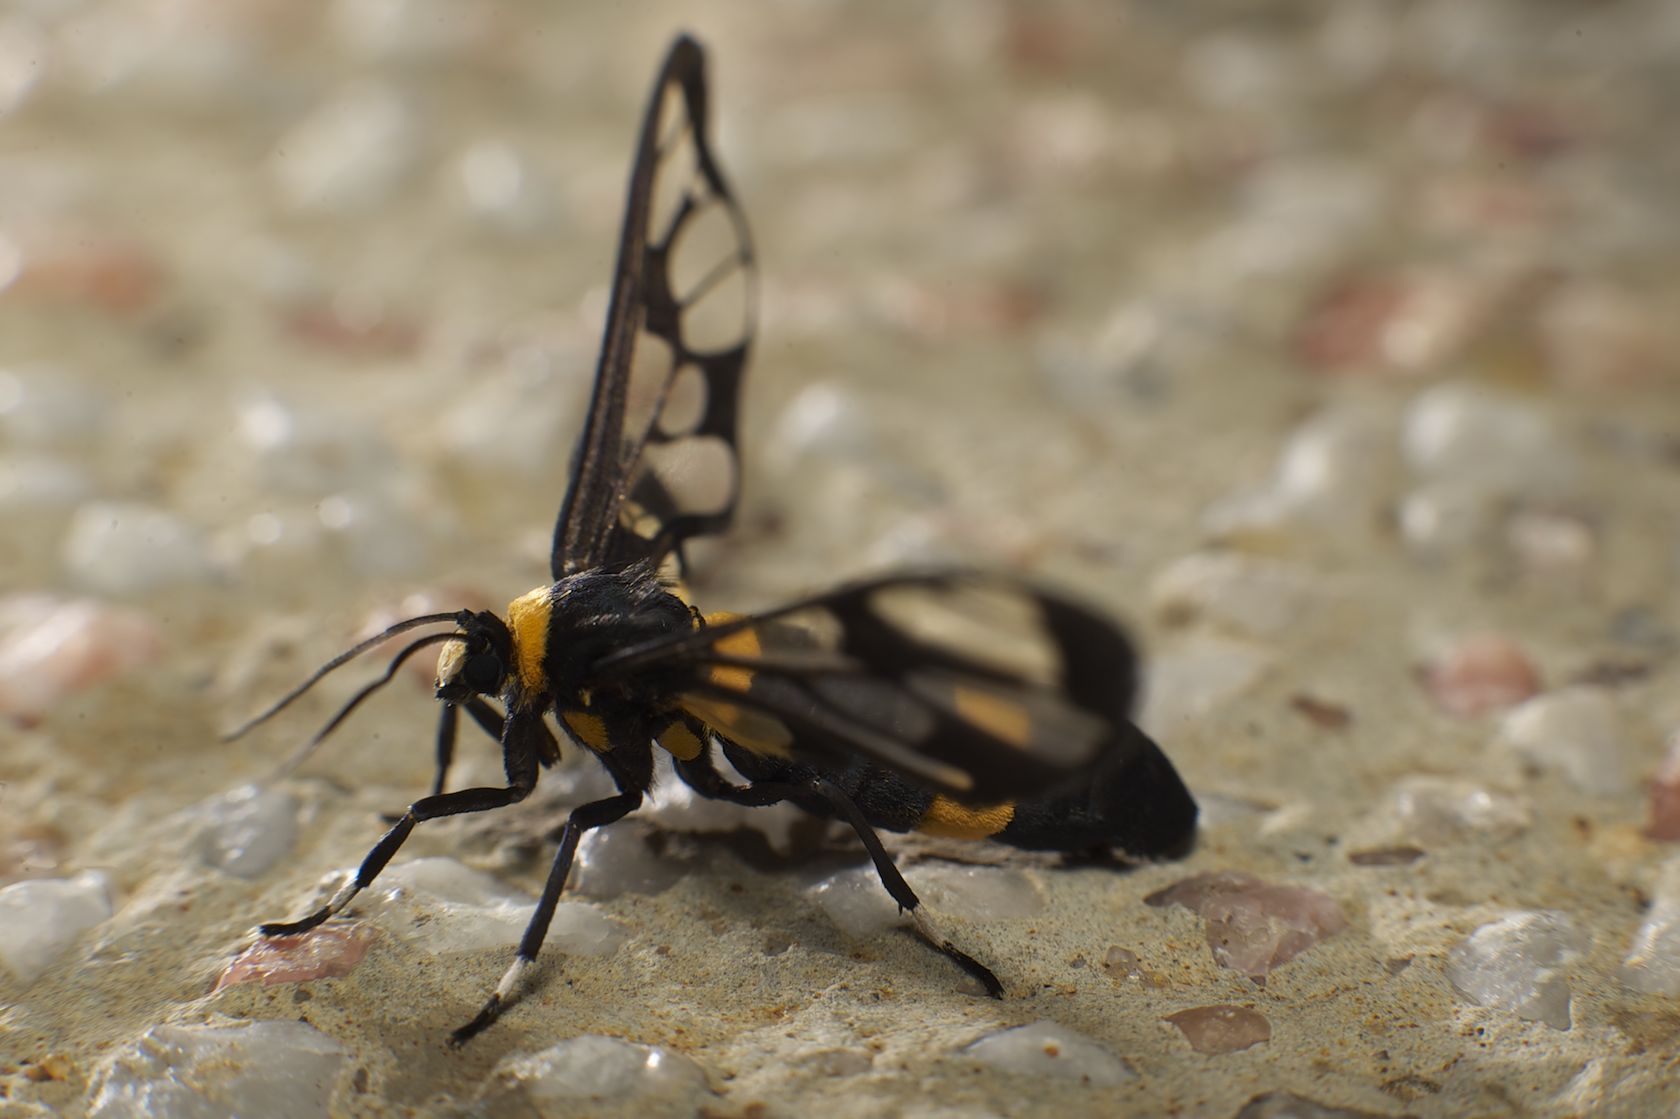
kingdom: Animalia
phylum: Arthropoda
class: Insecta
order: Lepidoptera
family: Erebidae
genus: Syntomoides
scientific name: Syntomoides imaon
